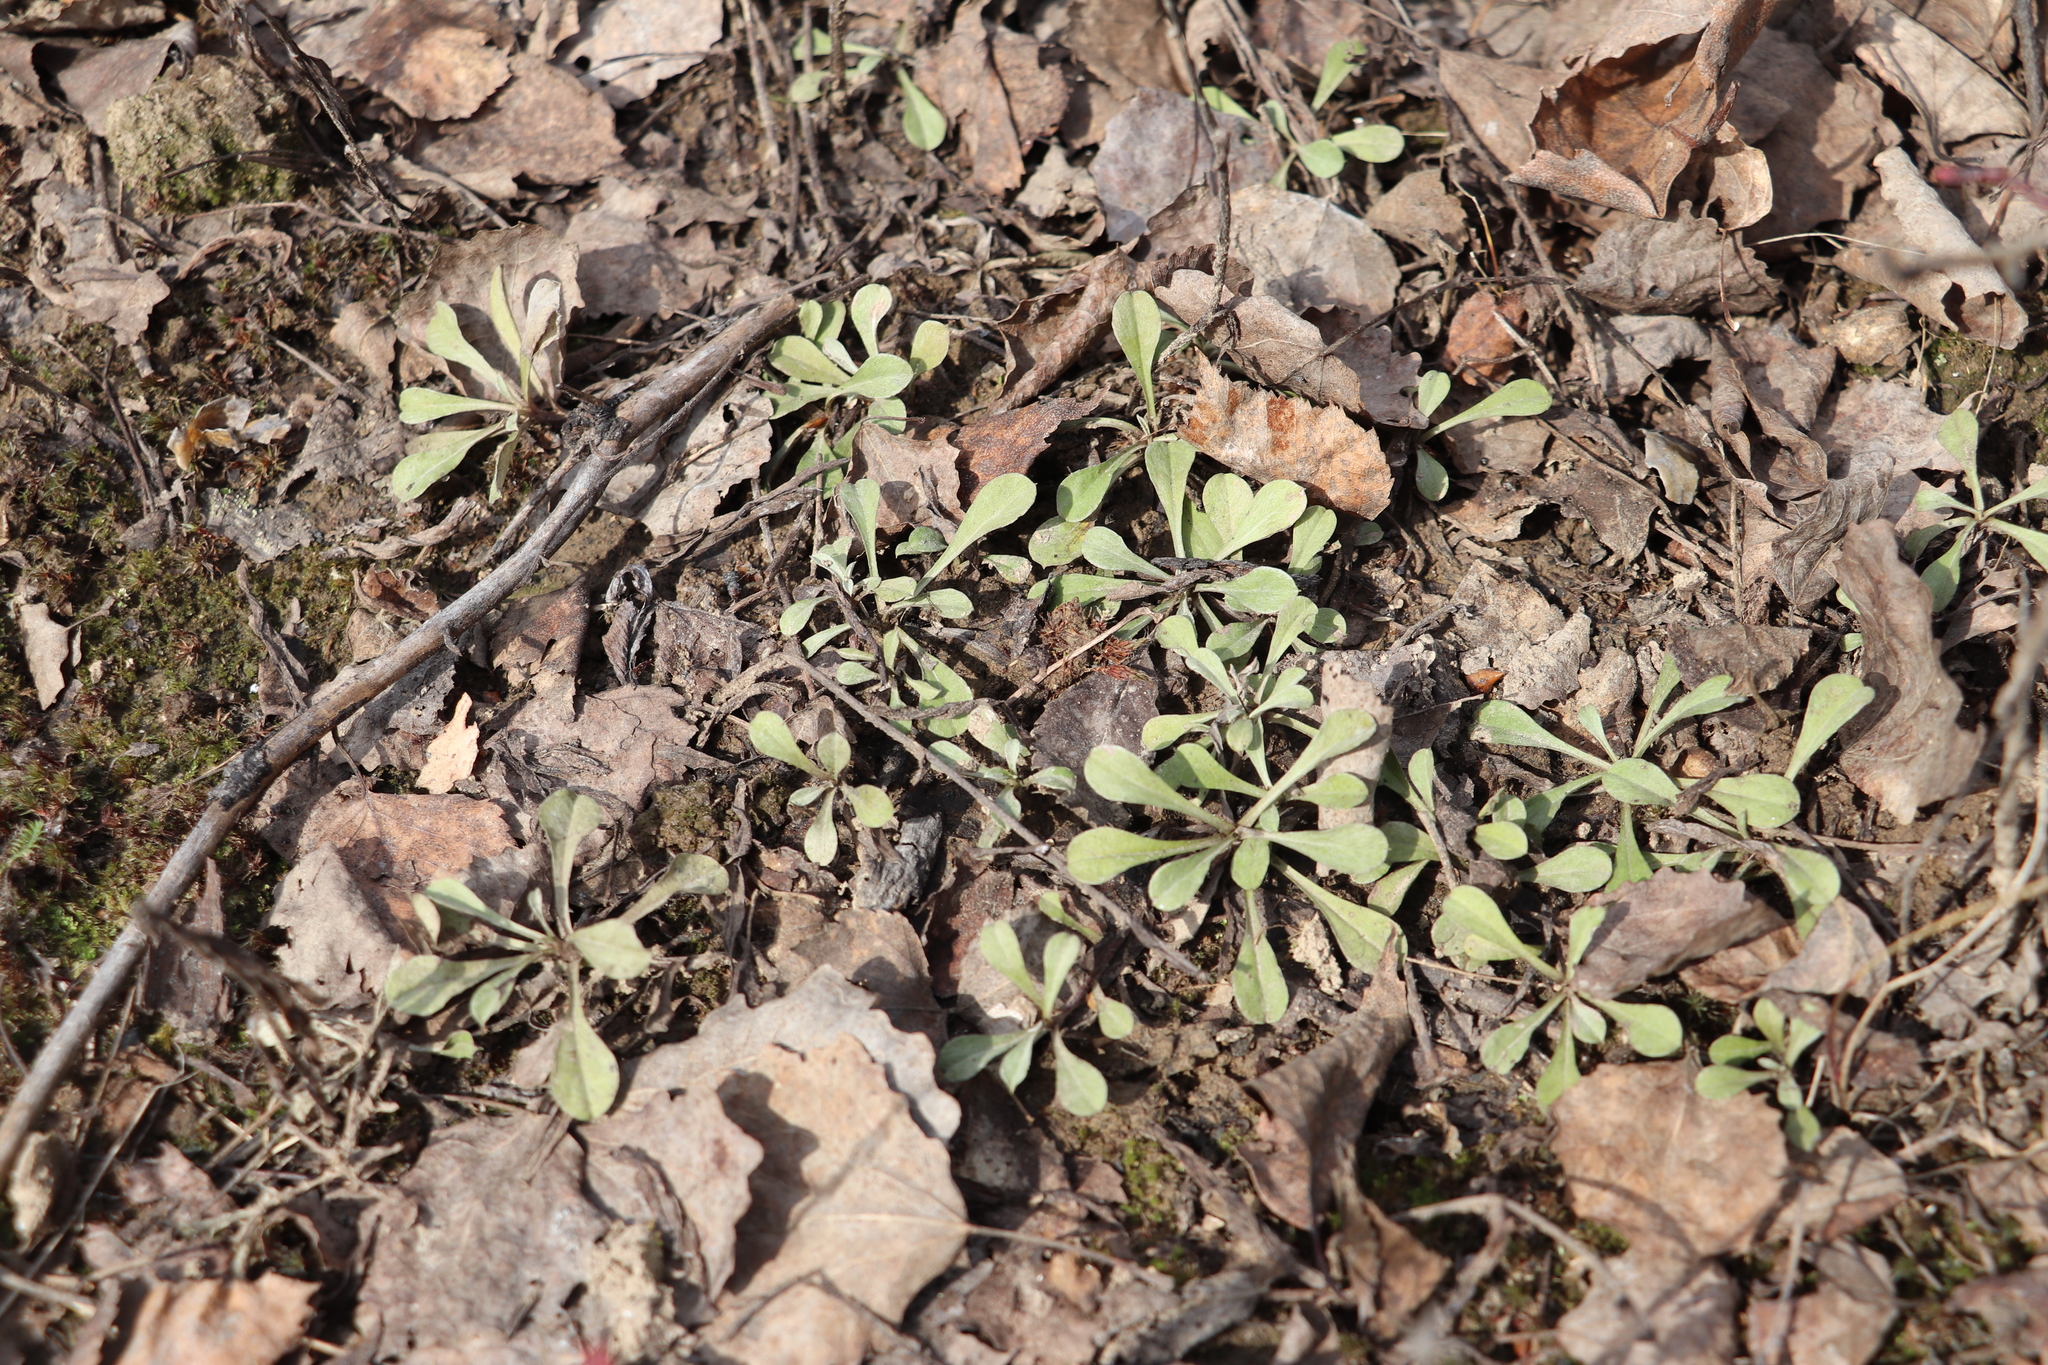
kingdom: Plantae
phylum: Tracheophyta
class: Magnoliopsida
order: Asterales
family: Asteraceae
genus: Antennaria
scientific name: Antennaria dioica
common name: Mountain everlasting
